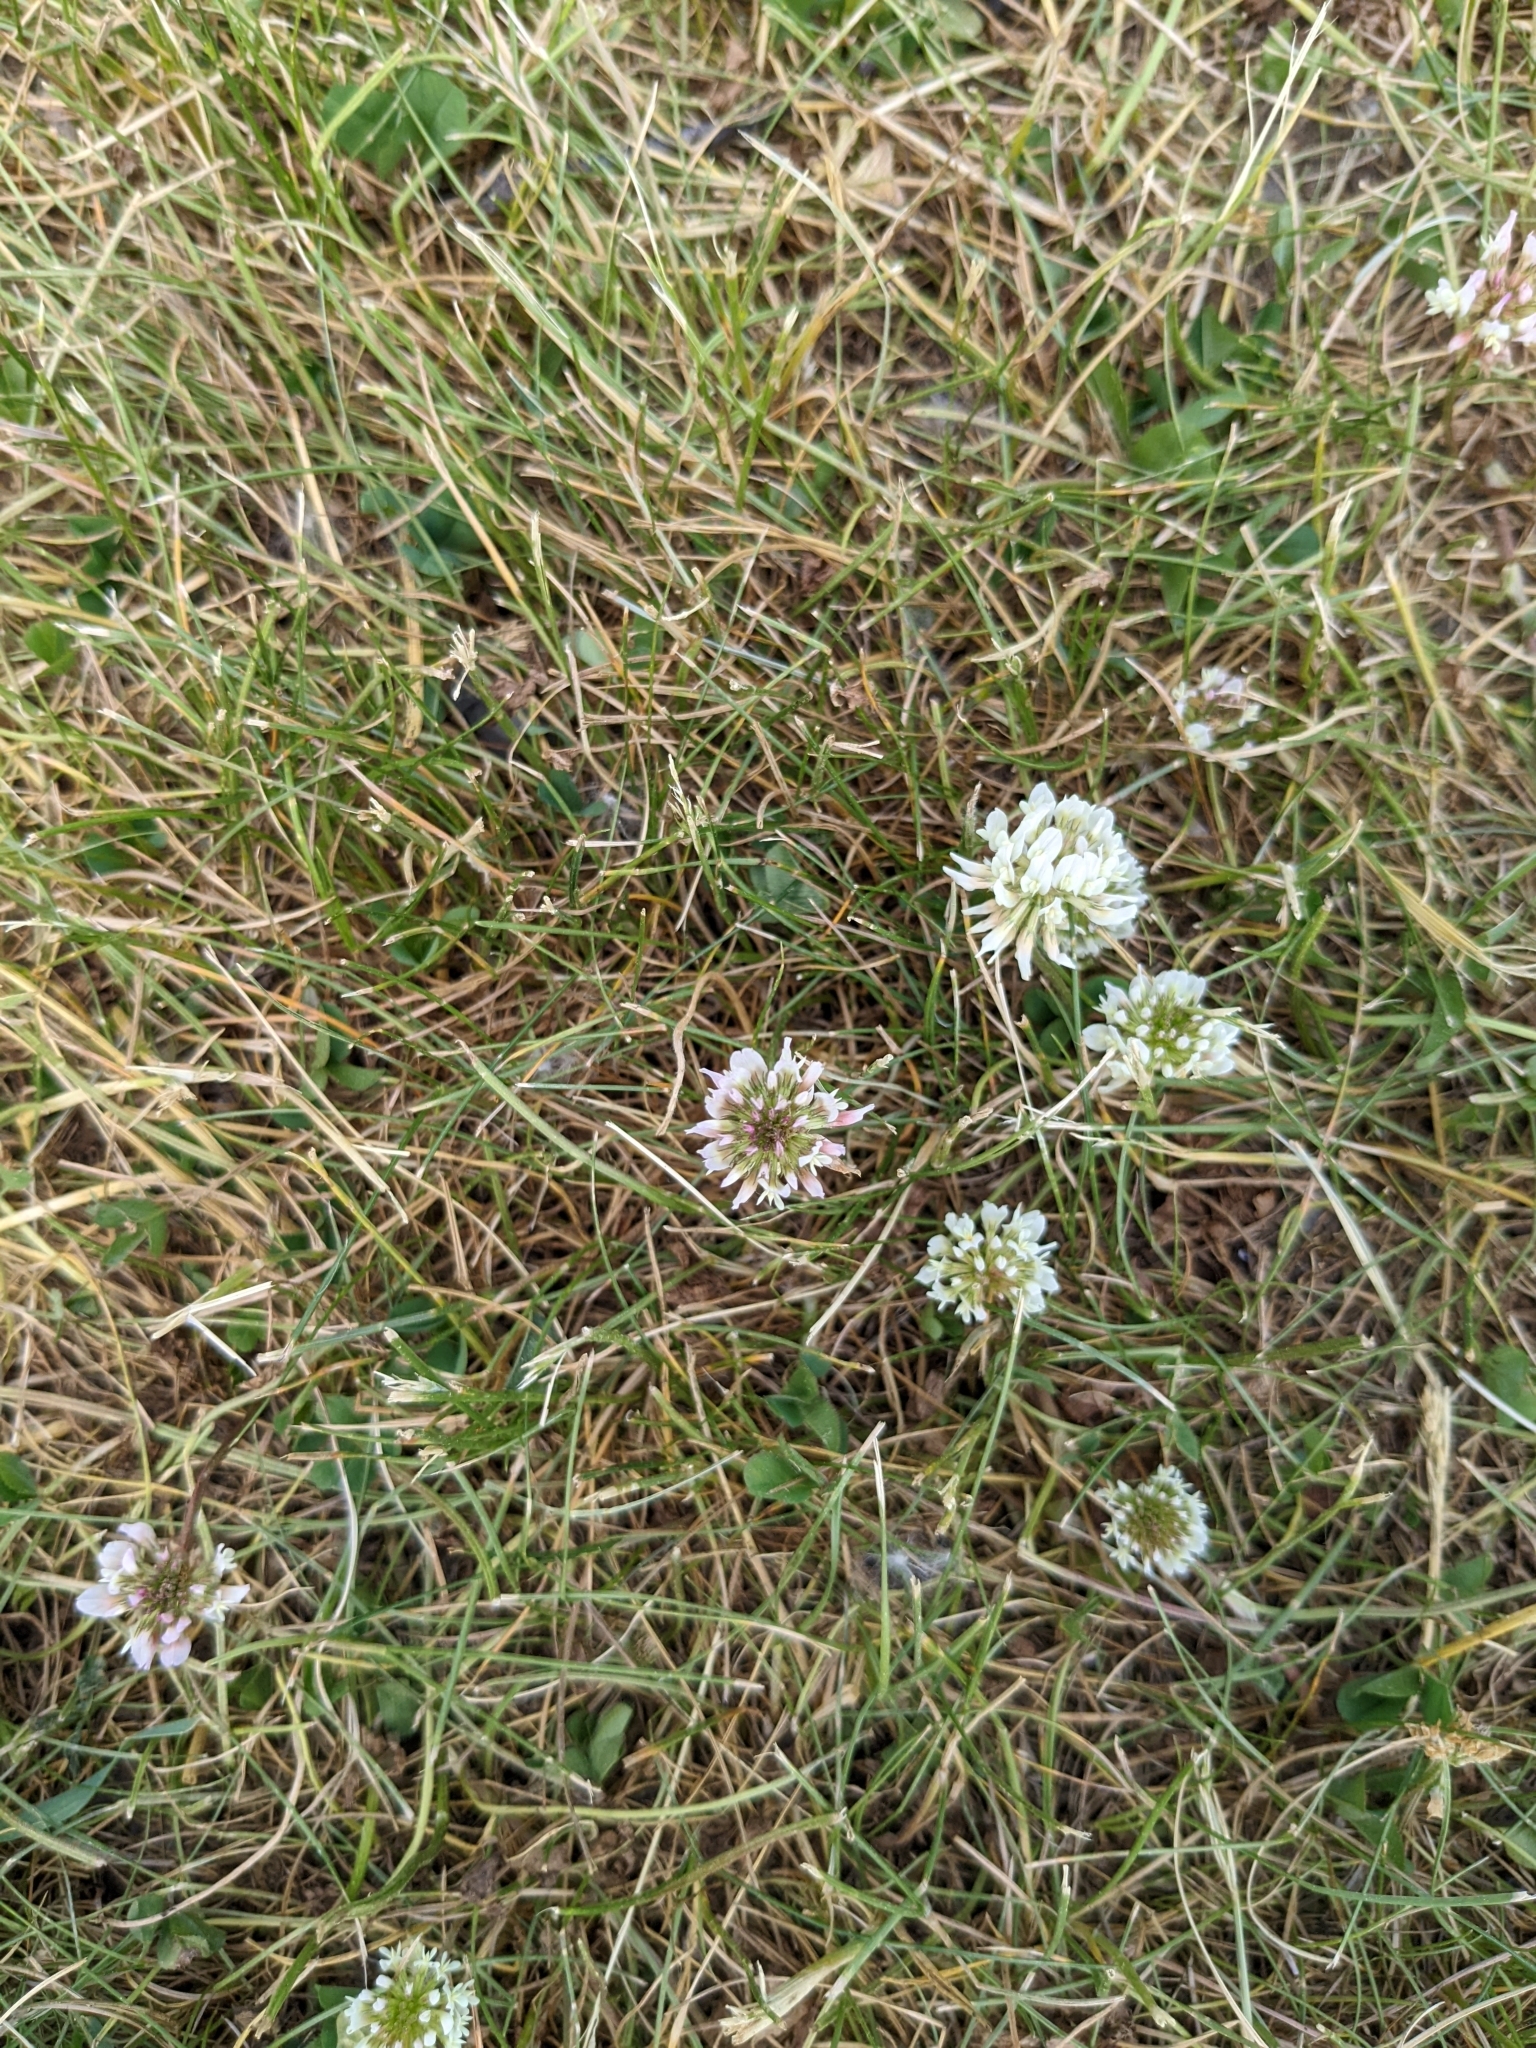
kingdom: Plantae
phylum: Tracheophyta
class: Magnoliopsida
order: Fabales
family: Fabaceae
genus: Trifolium
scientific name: Trifolium repens
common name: White clover
